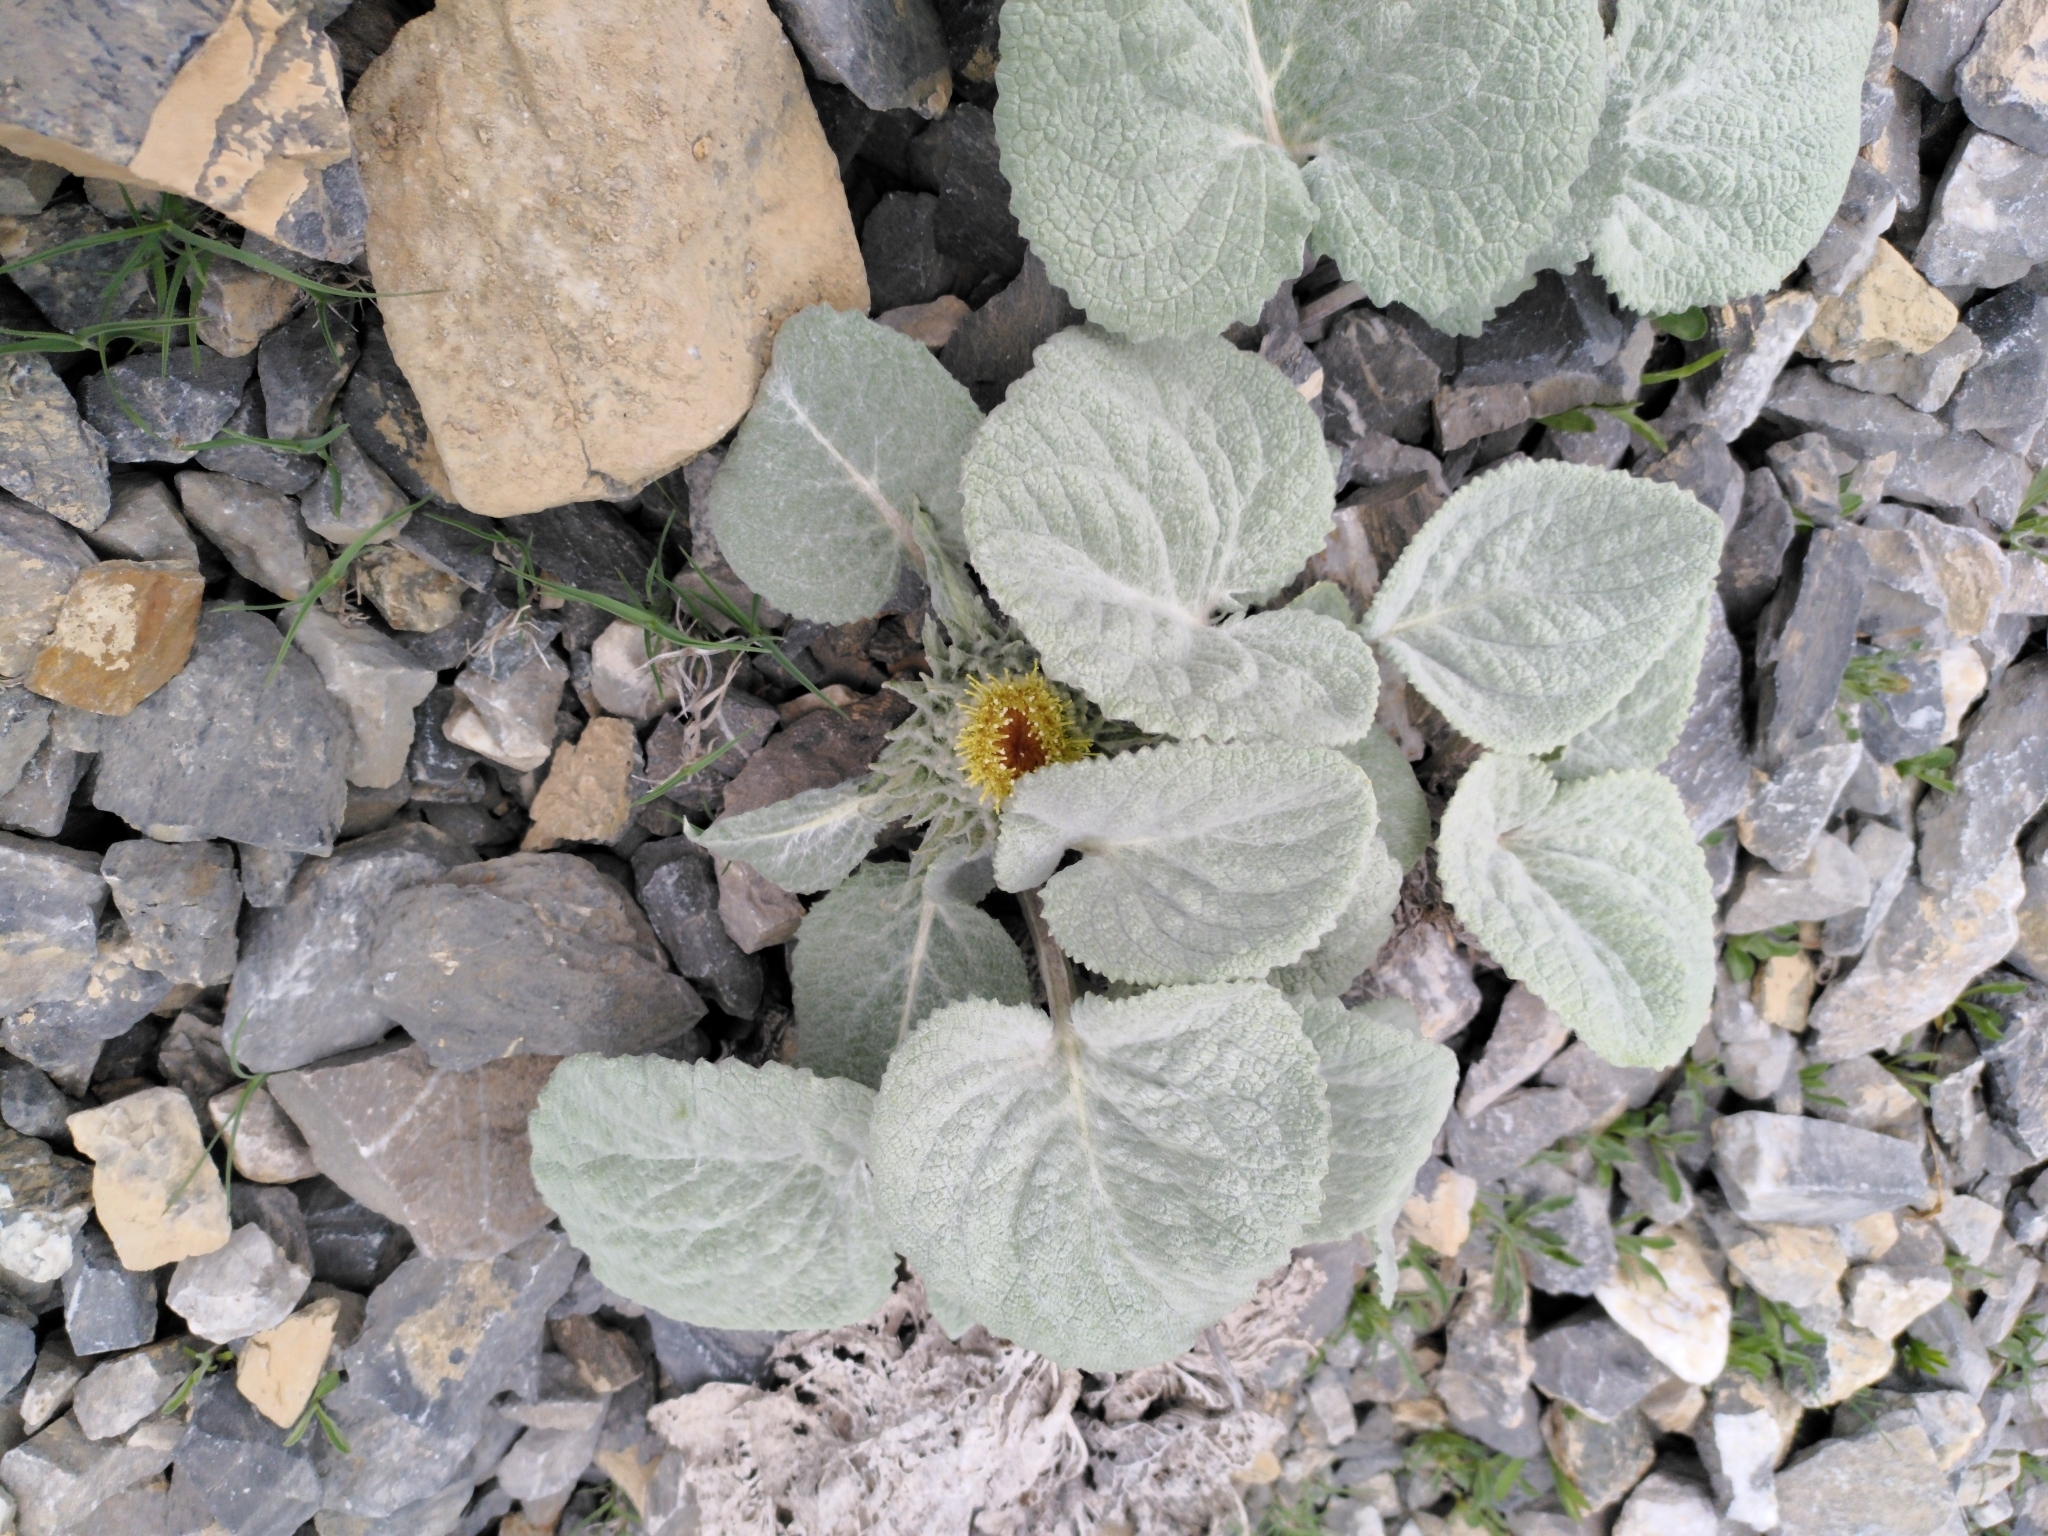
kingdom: Plantae
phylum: Tracheophyta
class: Magnoliopsida
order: Asterales
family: Asteraceae
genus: Berardia
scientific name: Berardia lanuginosa
